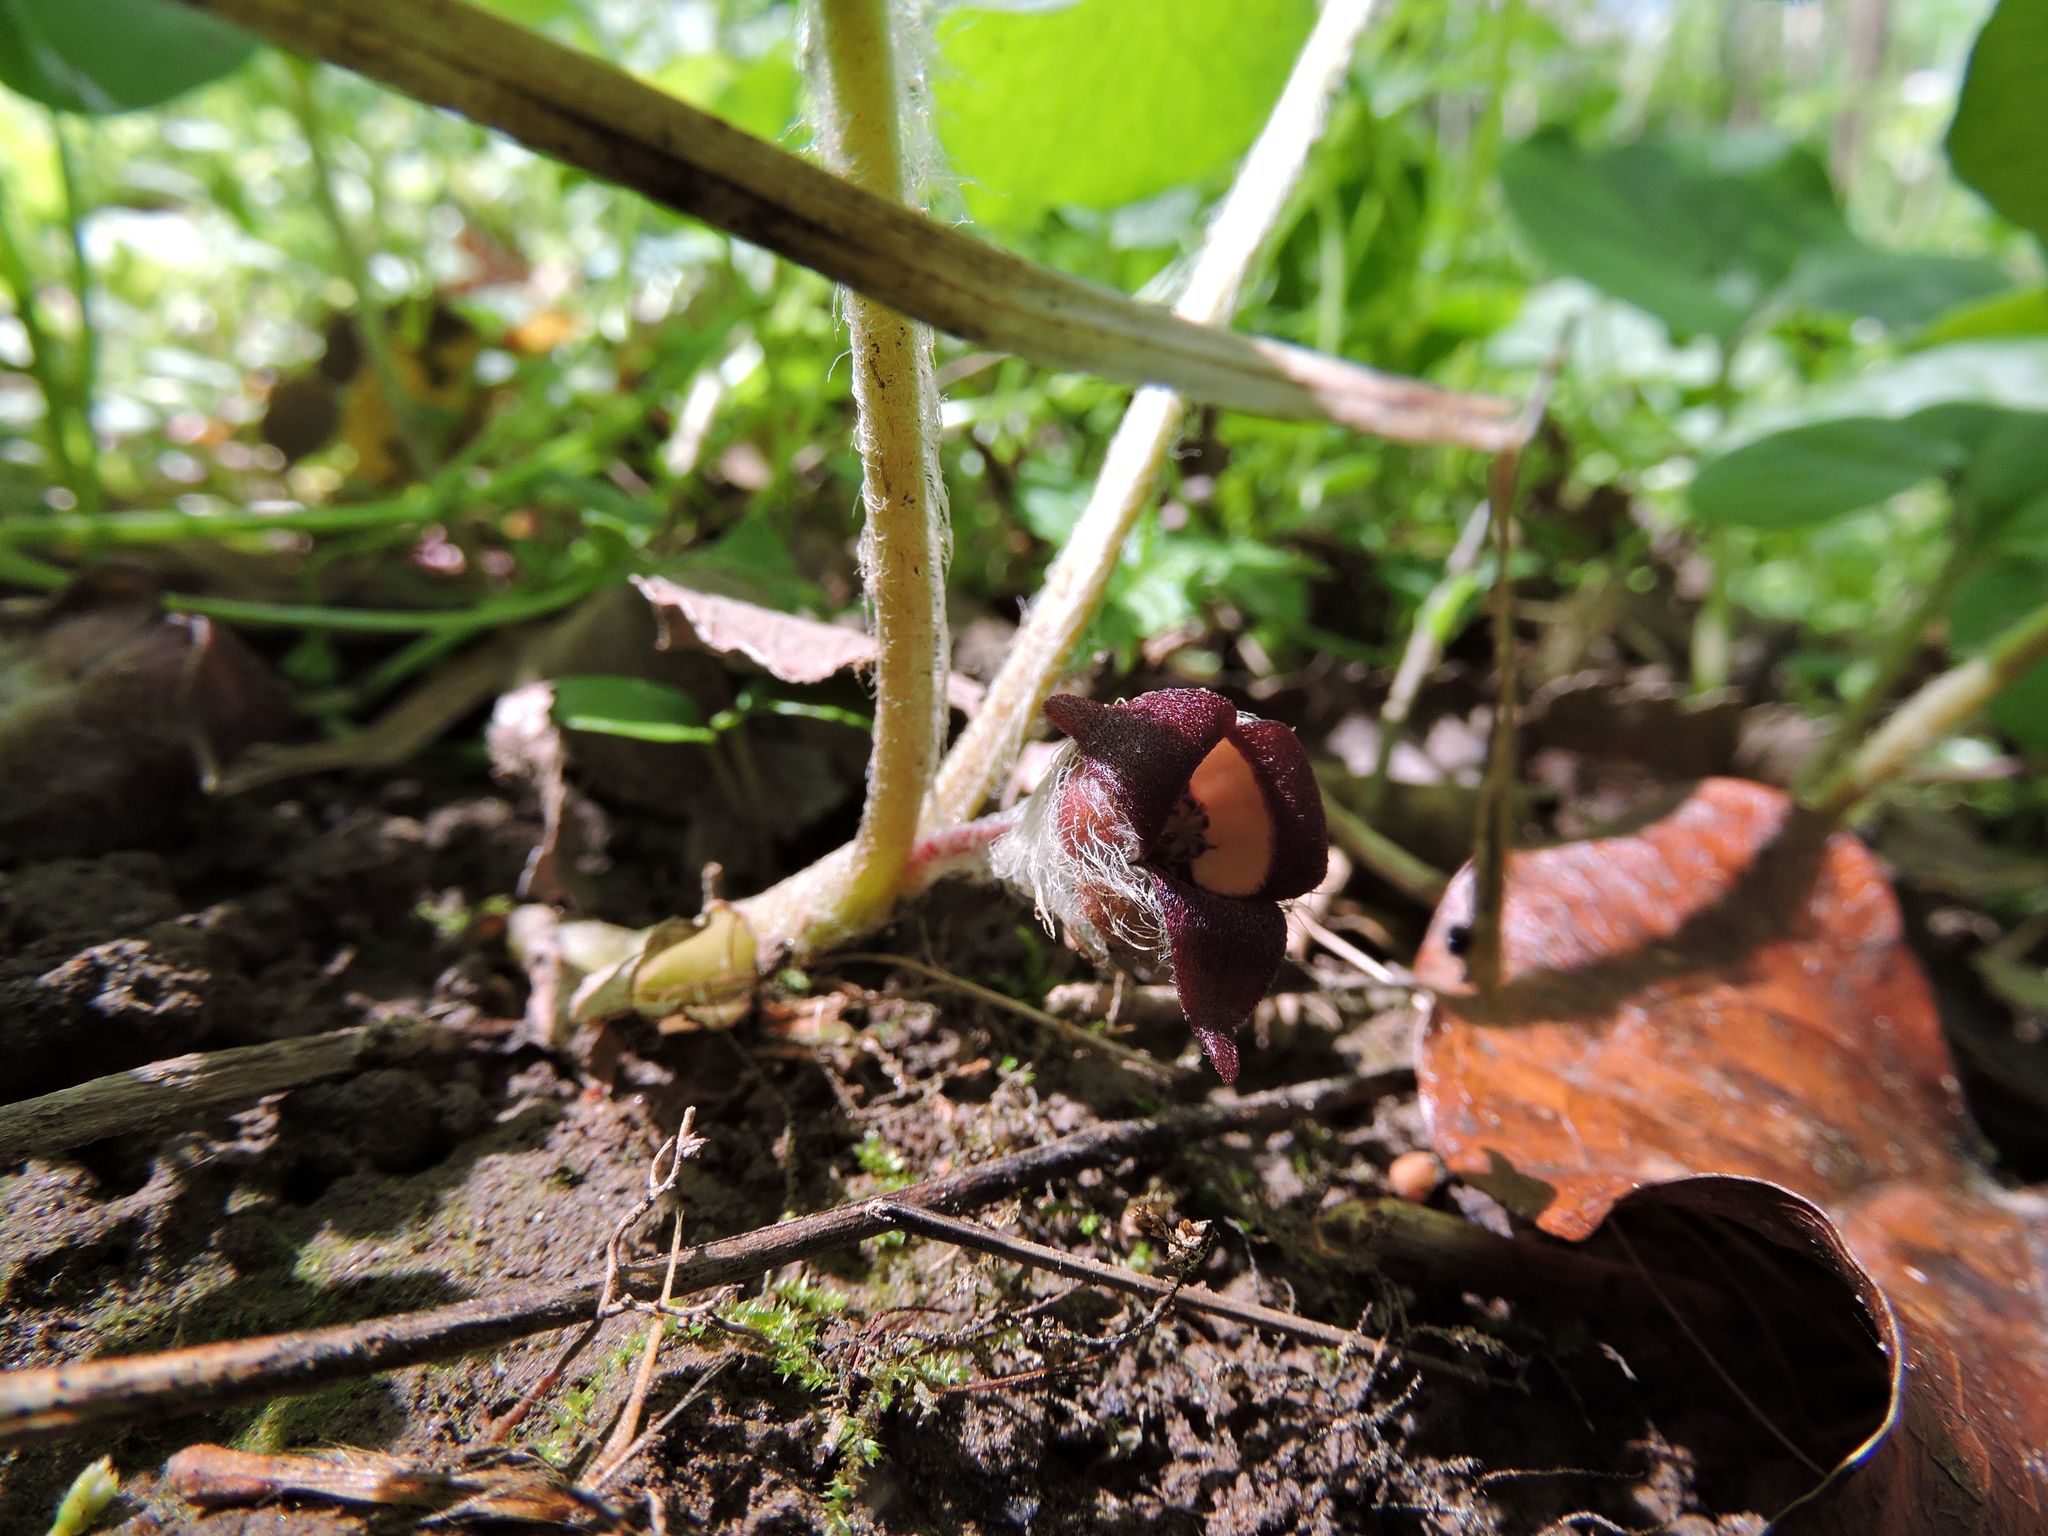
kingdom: Plantae
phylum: Tracheophyta
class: Magnoliopsida
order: Piperales
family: Aristolochiaceae
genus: Asarum
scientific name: Asarum canadense
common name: Wild ginger
